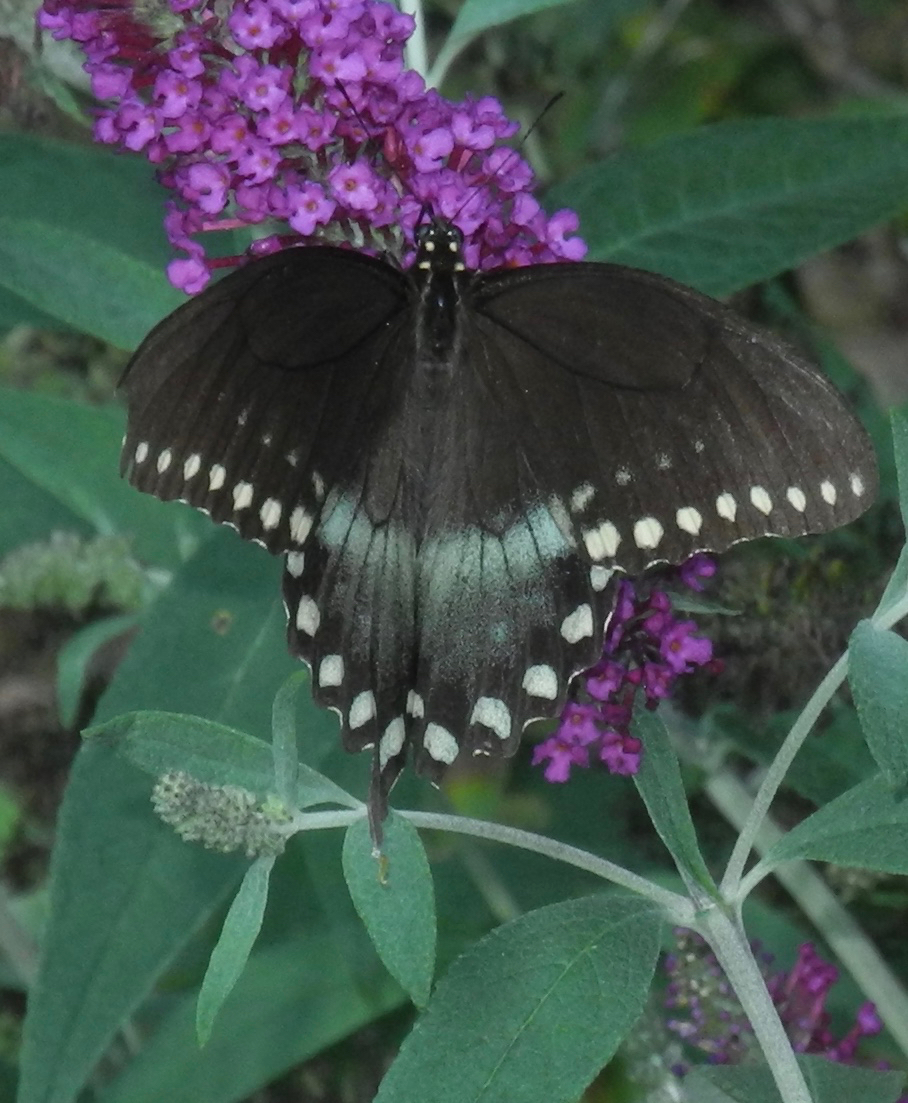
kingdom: Animalia
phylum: Arthropoda
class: Insecta
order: Lepidoptera
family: Papilionidae
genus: Papilio
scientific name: Papilio troilus
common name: Spicebush swallowtail
